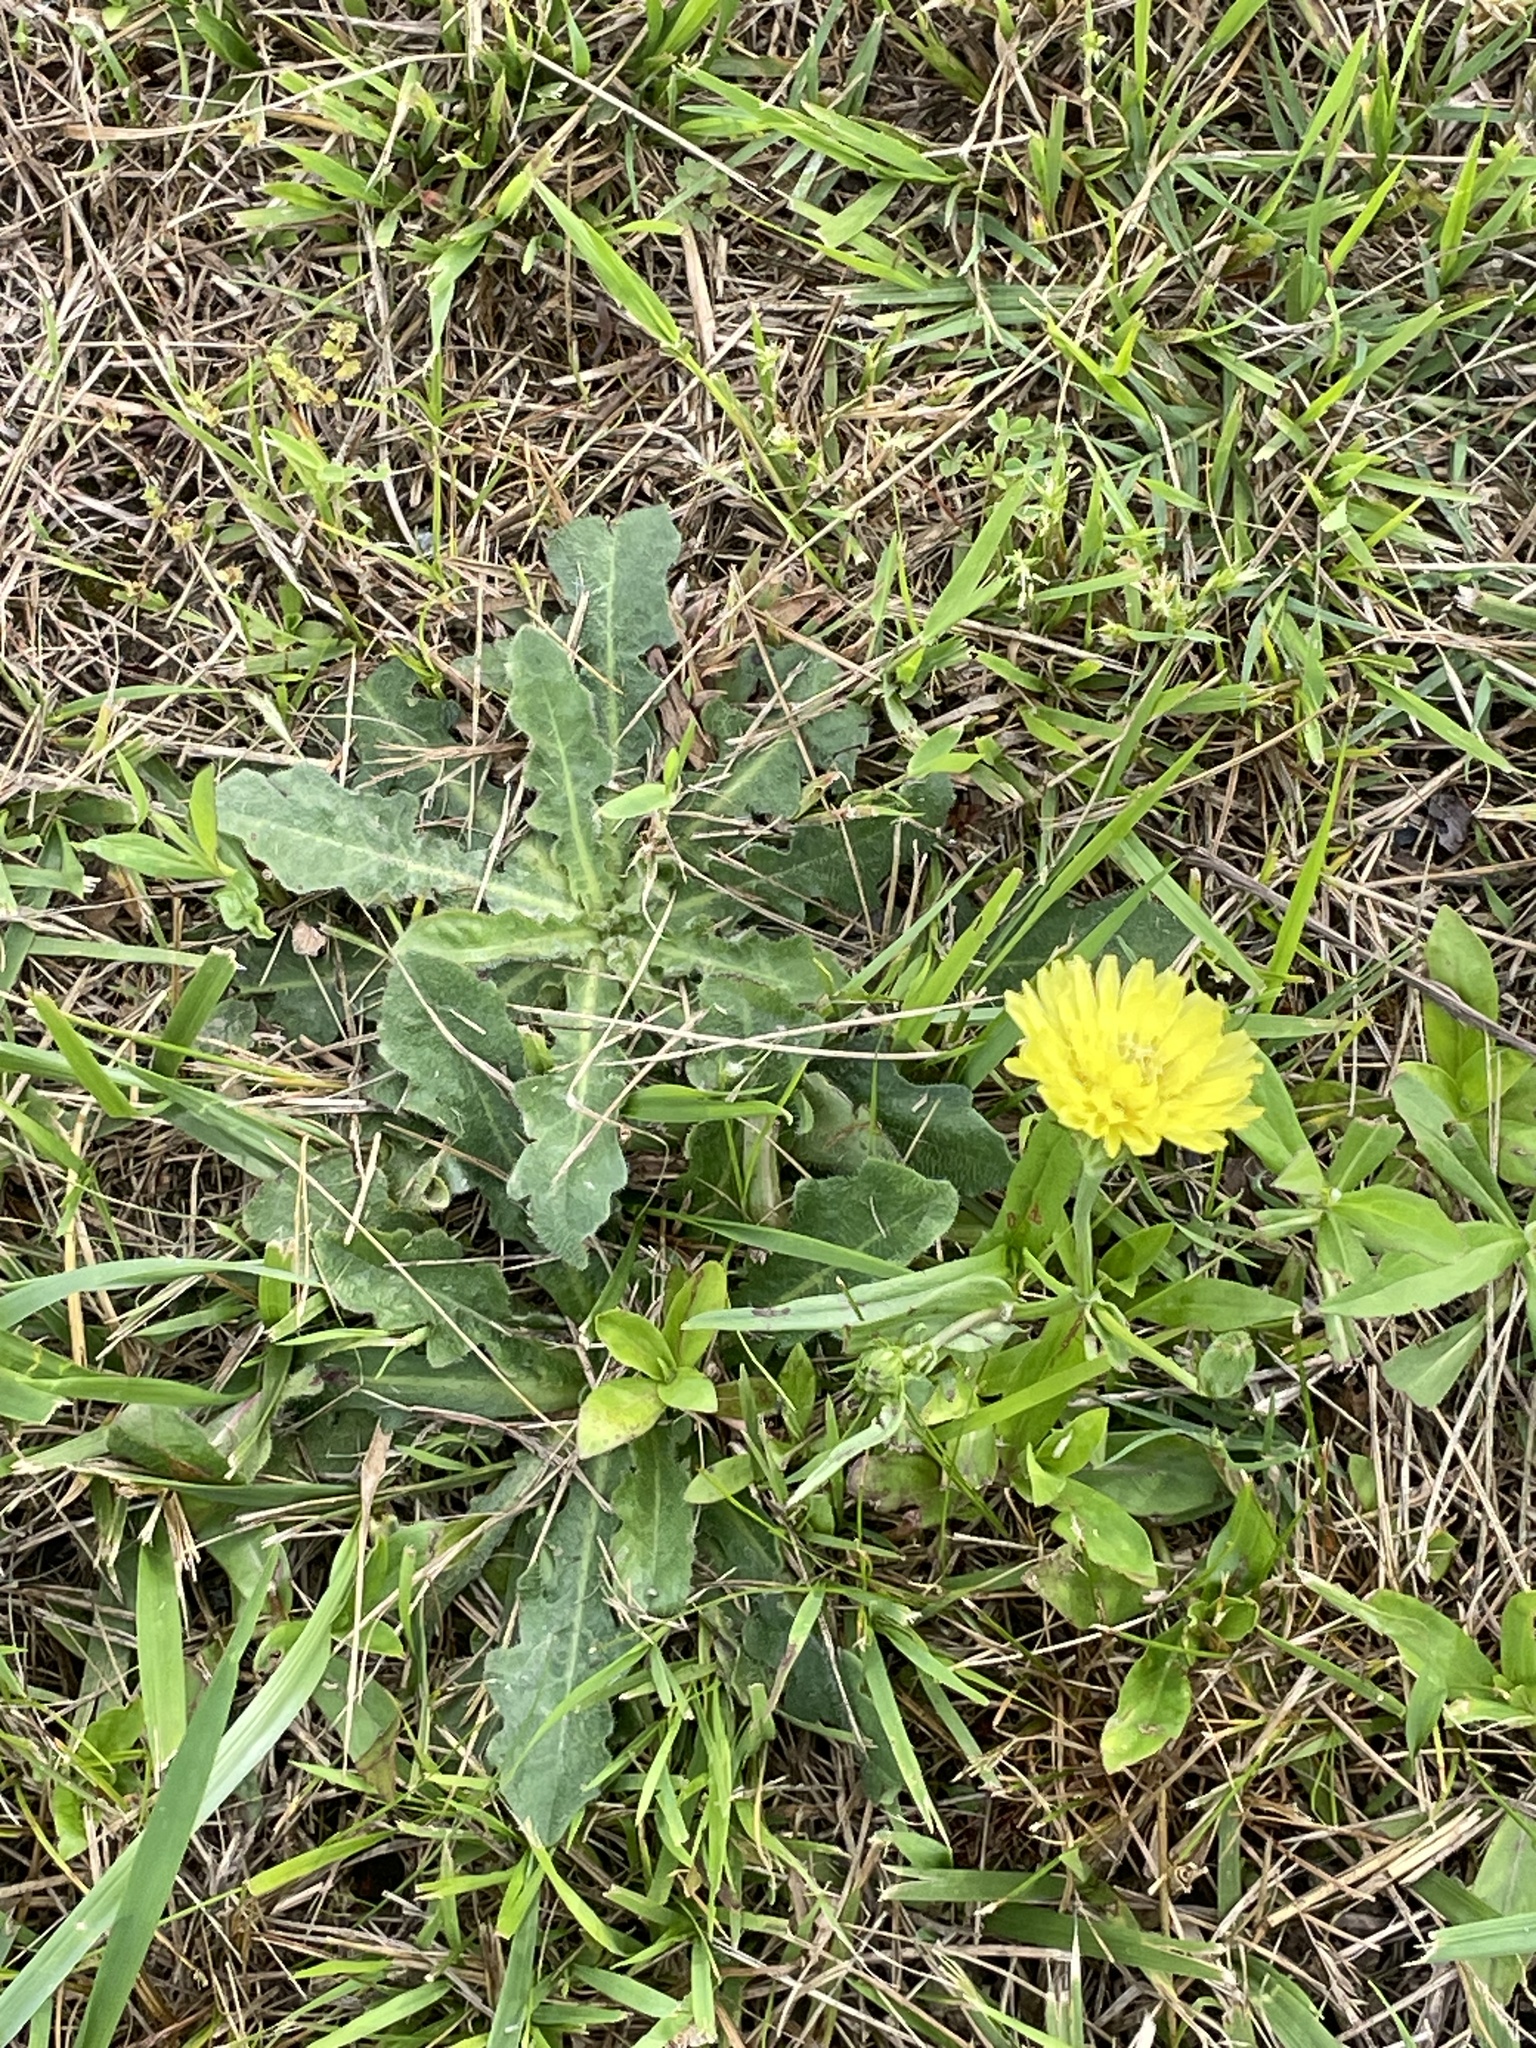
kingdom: Plantae
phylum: Tracheophyta
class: Magnoliopsida
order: Asterales
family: Asteraceae
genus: Pyrrhopappus
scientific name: Pyrrhopappus carolinianus
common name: Carolina desert-chicory
